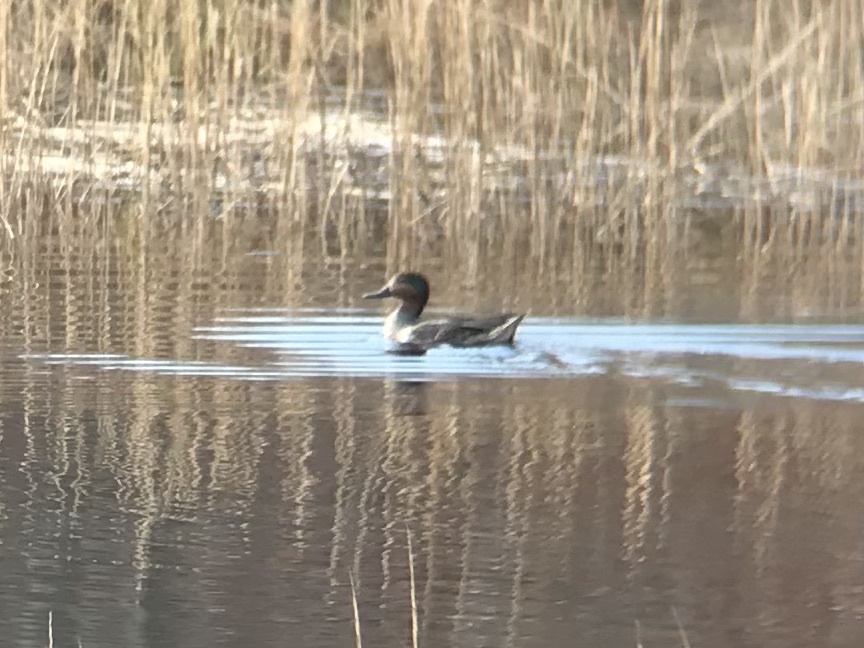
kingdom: Animalia
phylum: Chordata
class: Aves
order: Anseriformes
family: Anatidae
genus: Anas
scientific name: Anas crecca
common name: Eurasian teal
